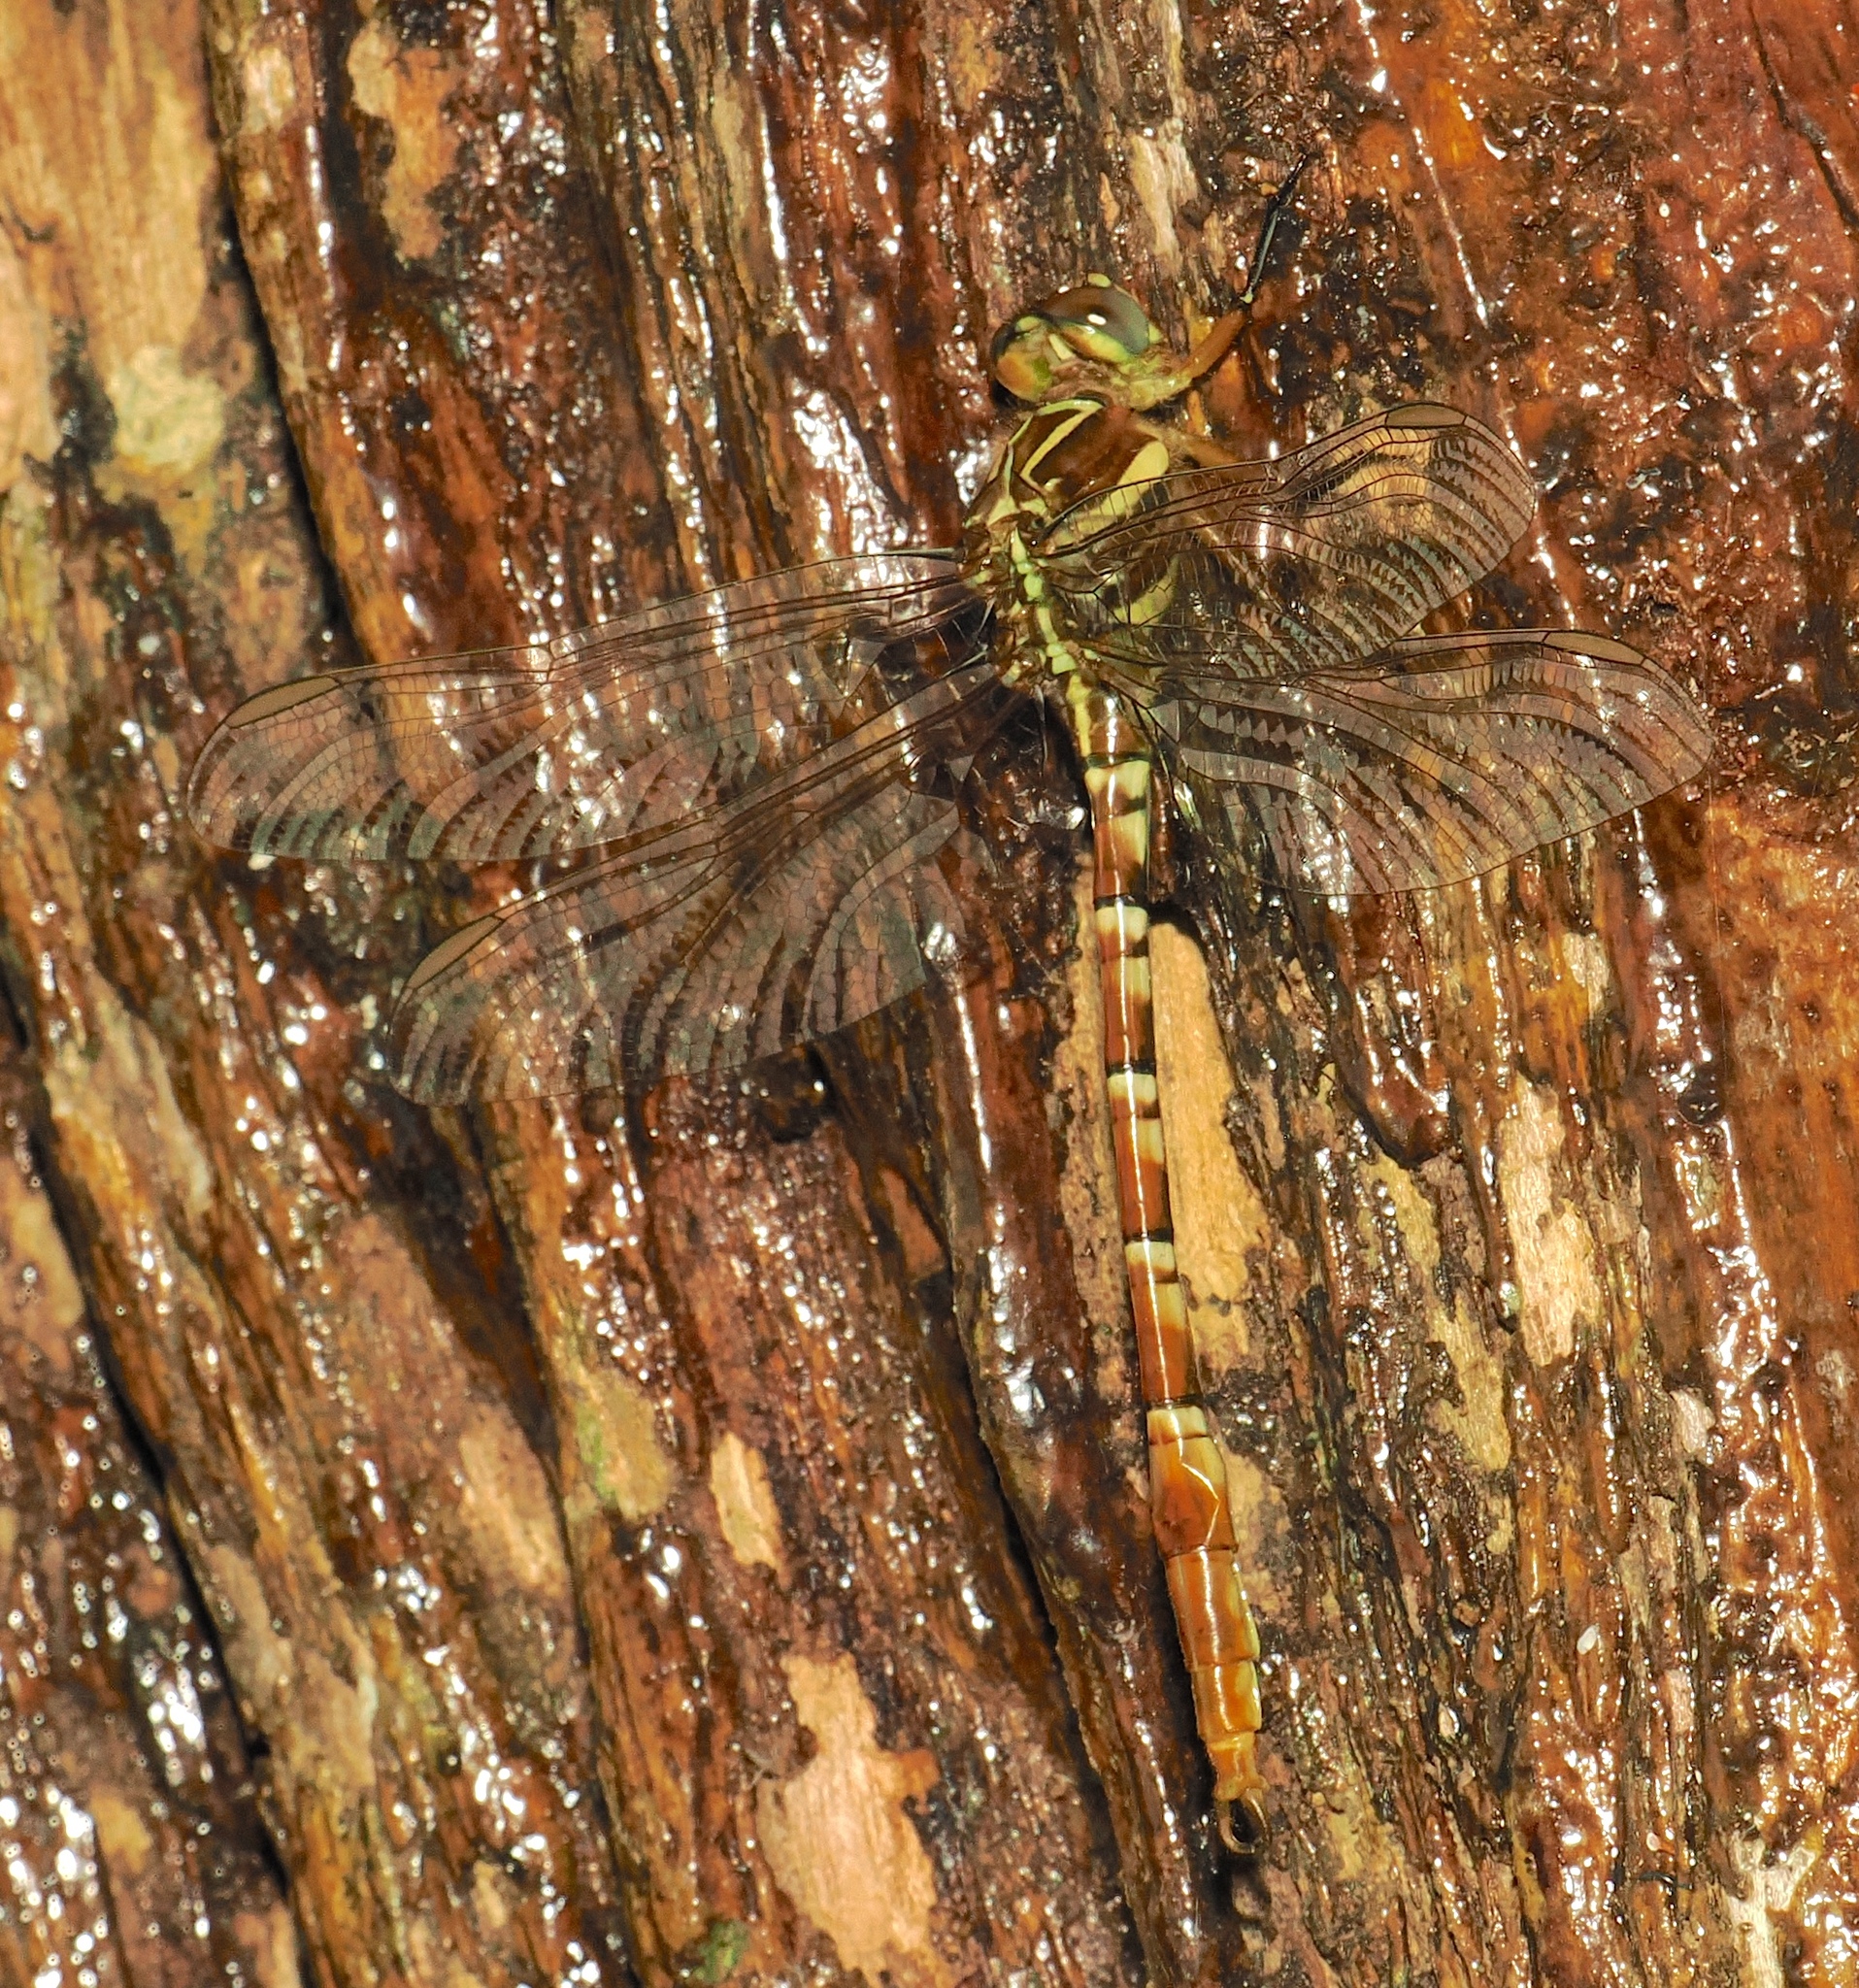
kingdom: Animalia
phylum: Arthropoda
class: Insecta
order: Odonata
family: Gomphidae
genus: Aphylla
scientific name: Aphylla theodorina
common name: Ringed forceptail
